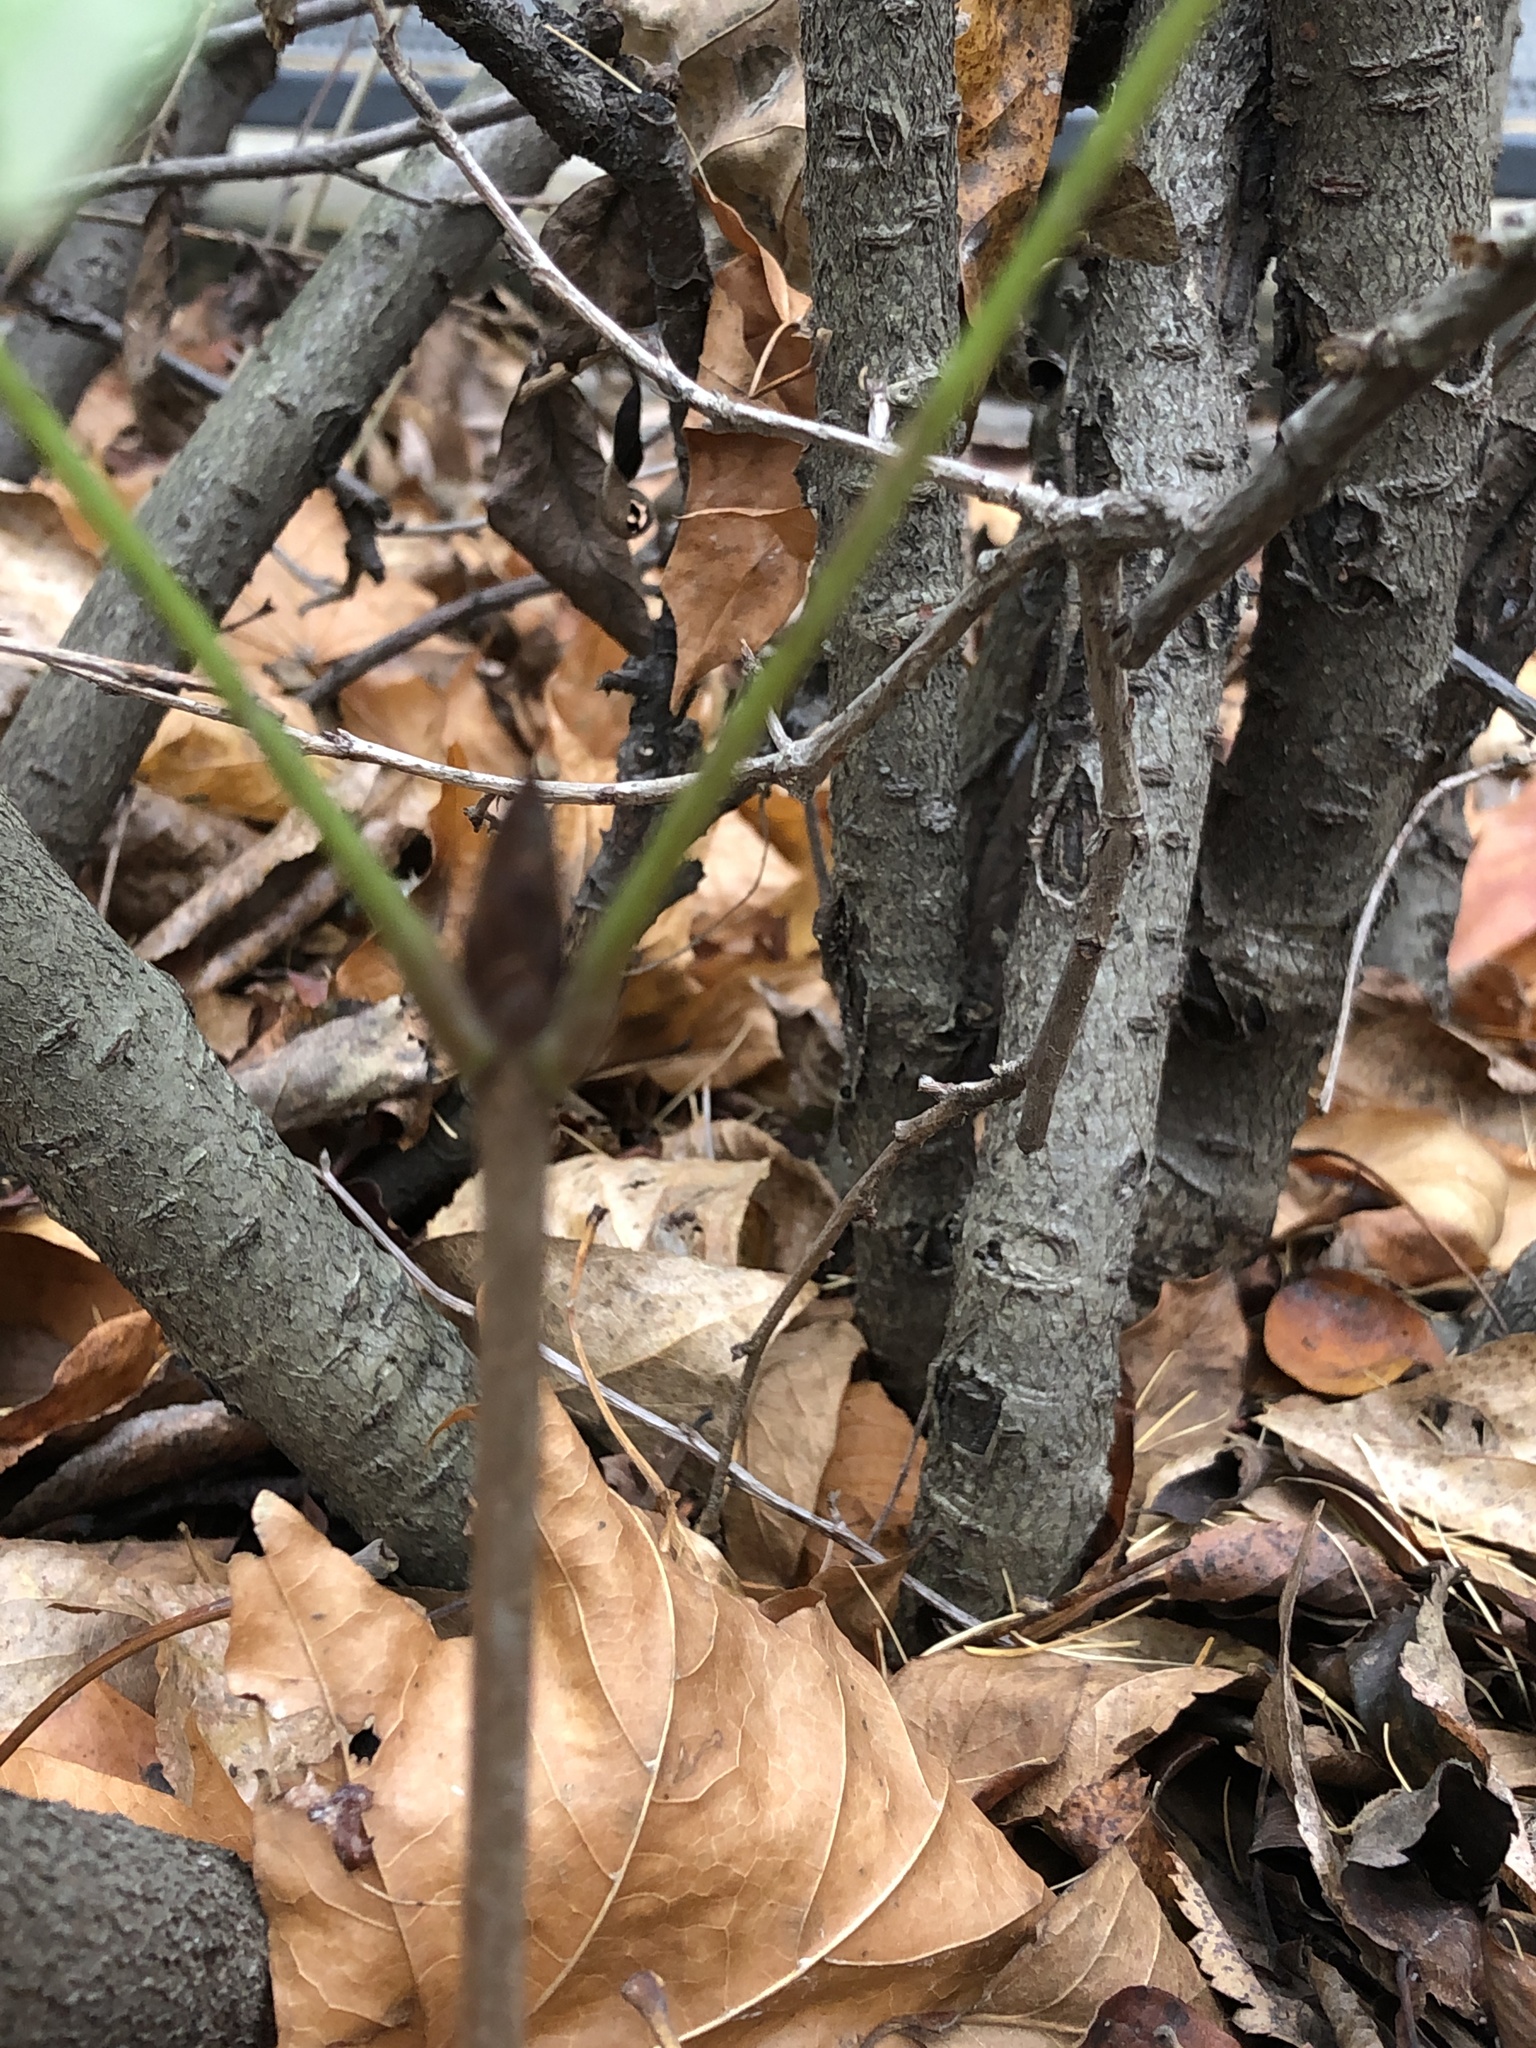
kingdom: Plantae
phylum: Tracheophyta
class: Magnoliopsida
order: Sapindales
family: Sapindaceae
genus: Aesculus
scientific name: Aesculus hippocastanum
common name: Horse-chestnut
